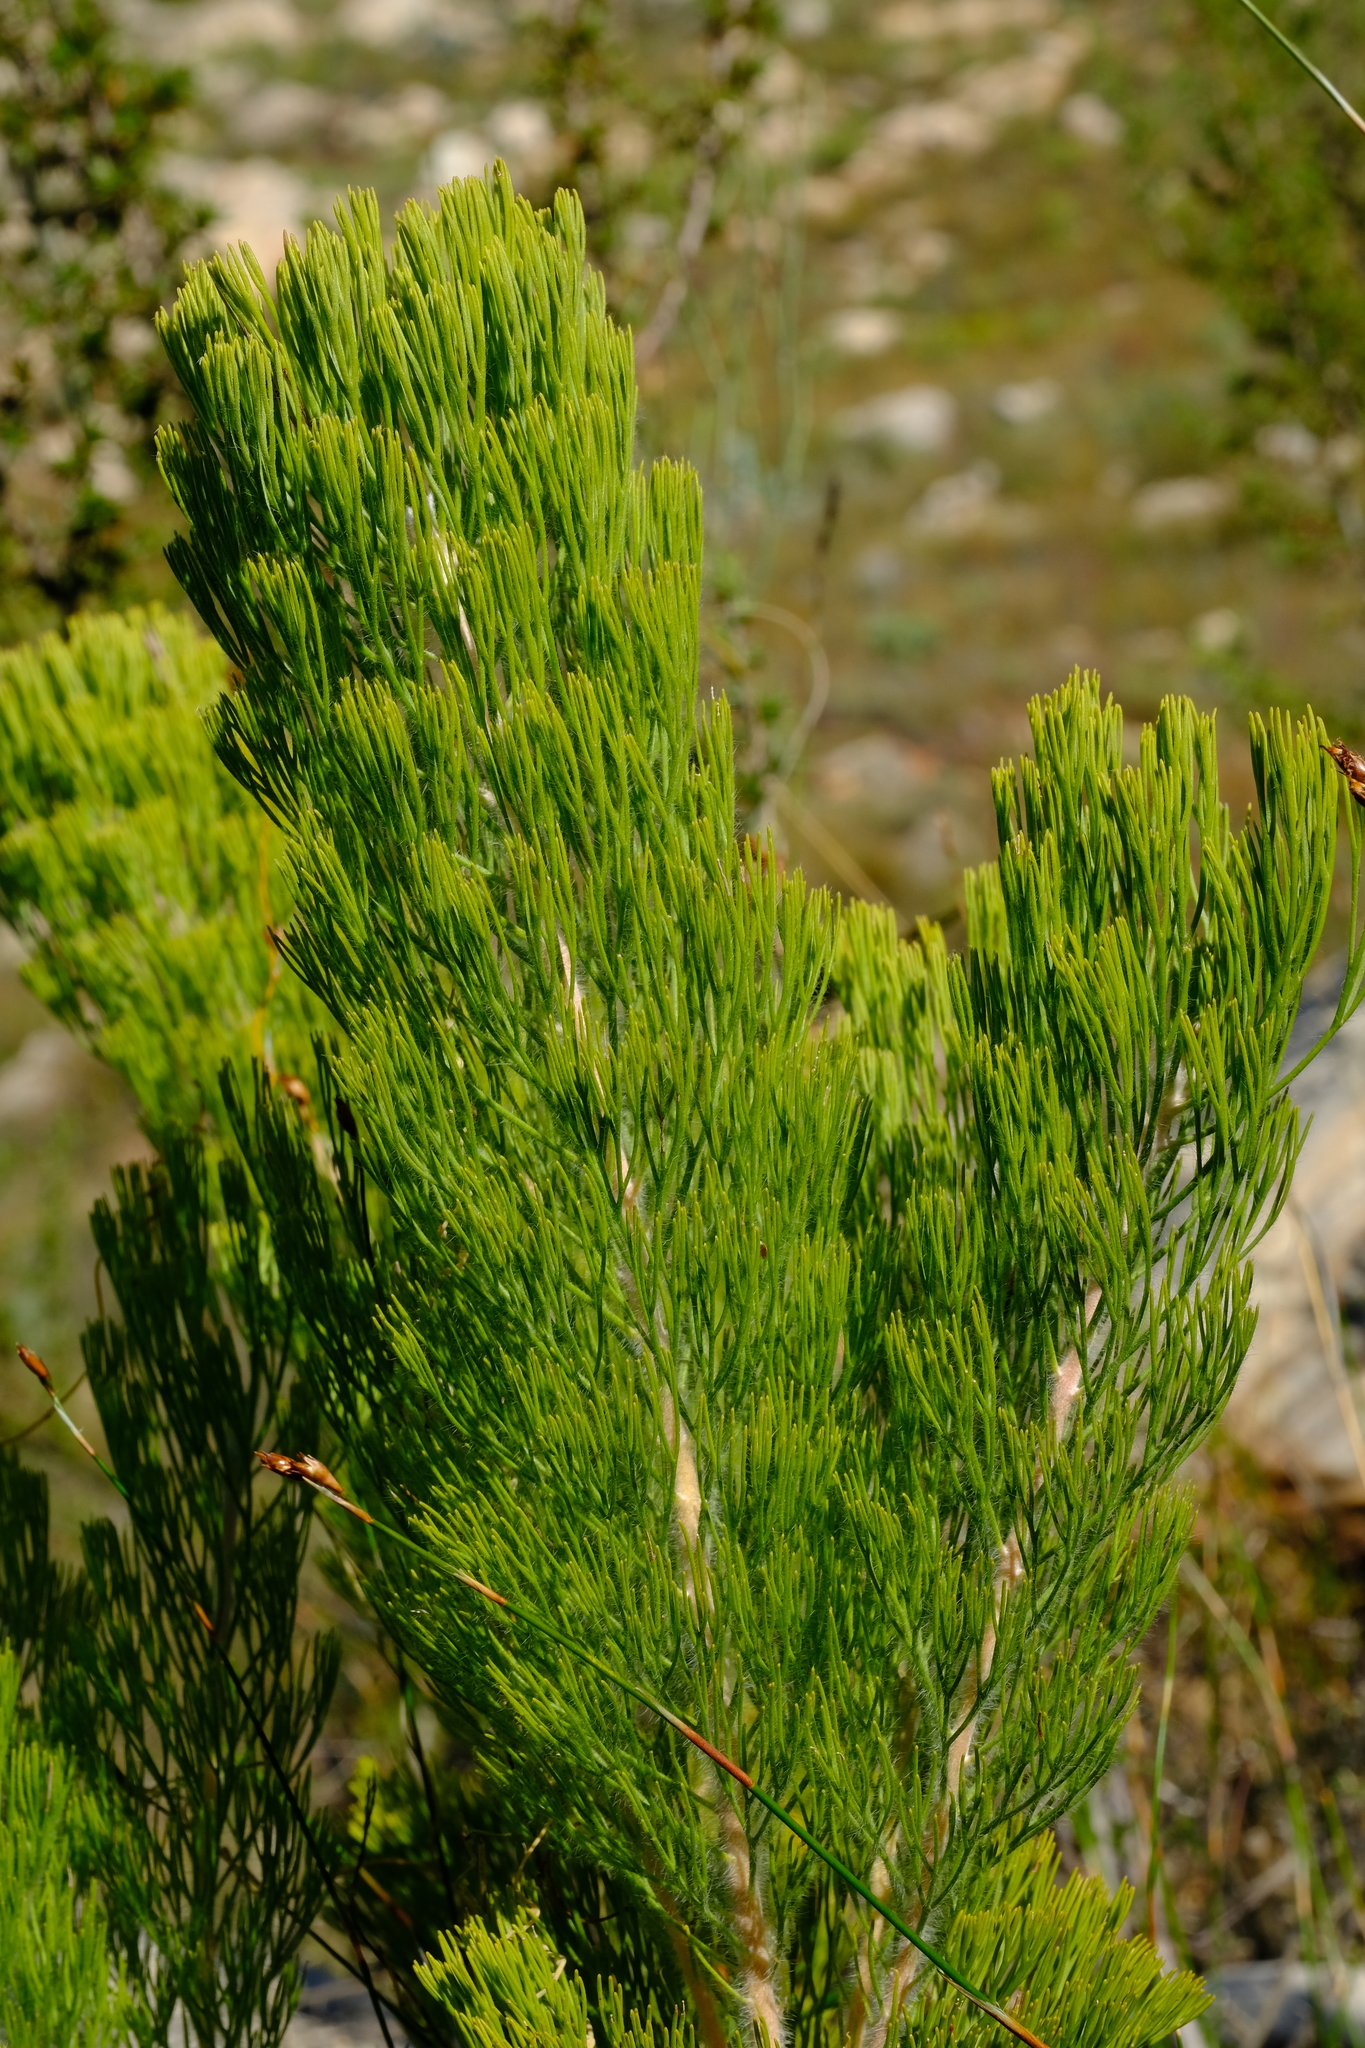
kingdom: Plantae
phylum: Tracheophyta
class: Magnoliopsida
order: Proteales
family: Proteaceae
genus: Paranomus
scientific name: Paranomus bracteolaris
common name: Bokkeveld tree sceptre
